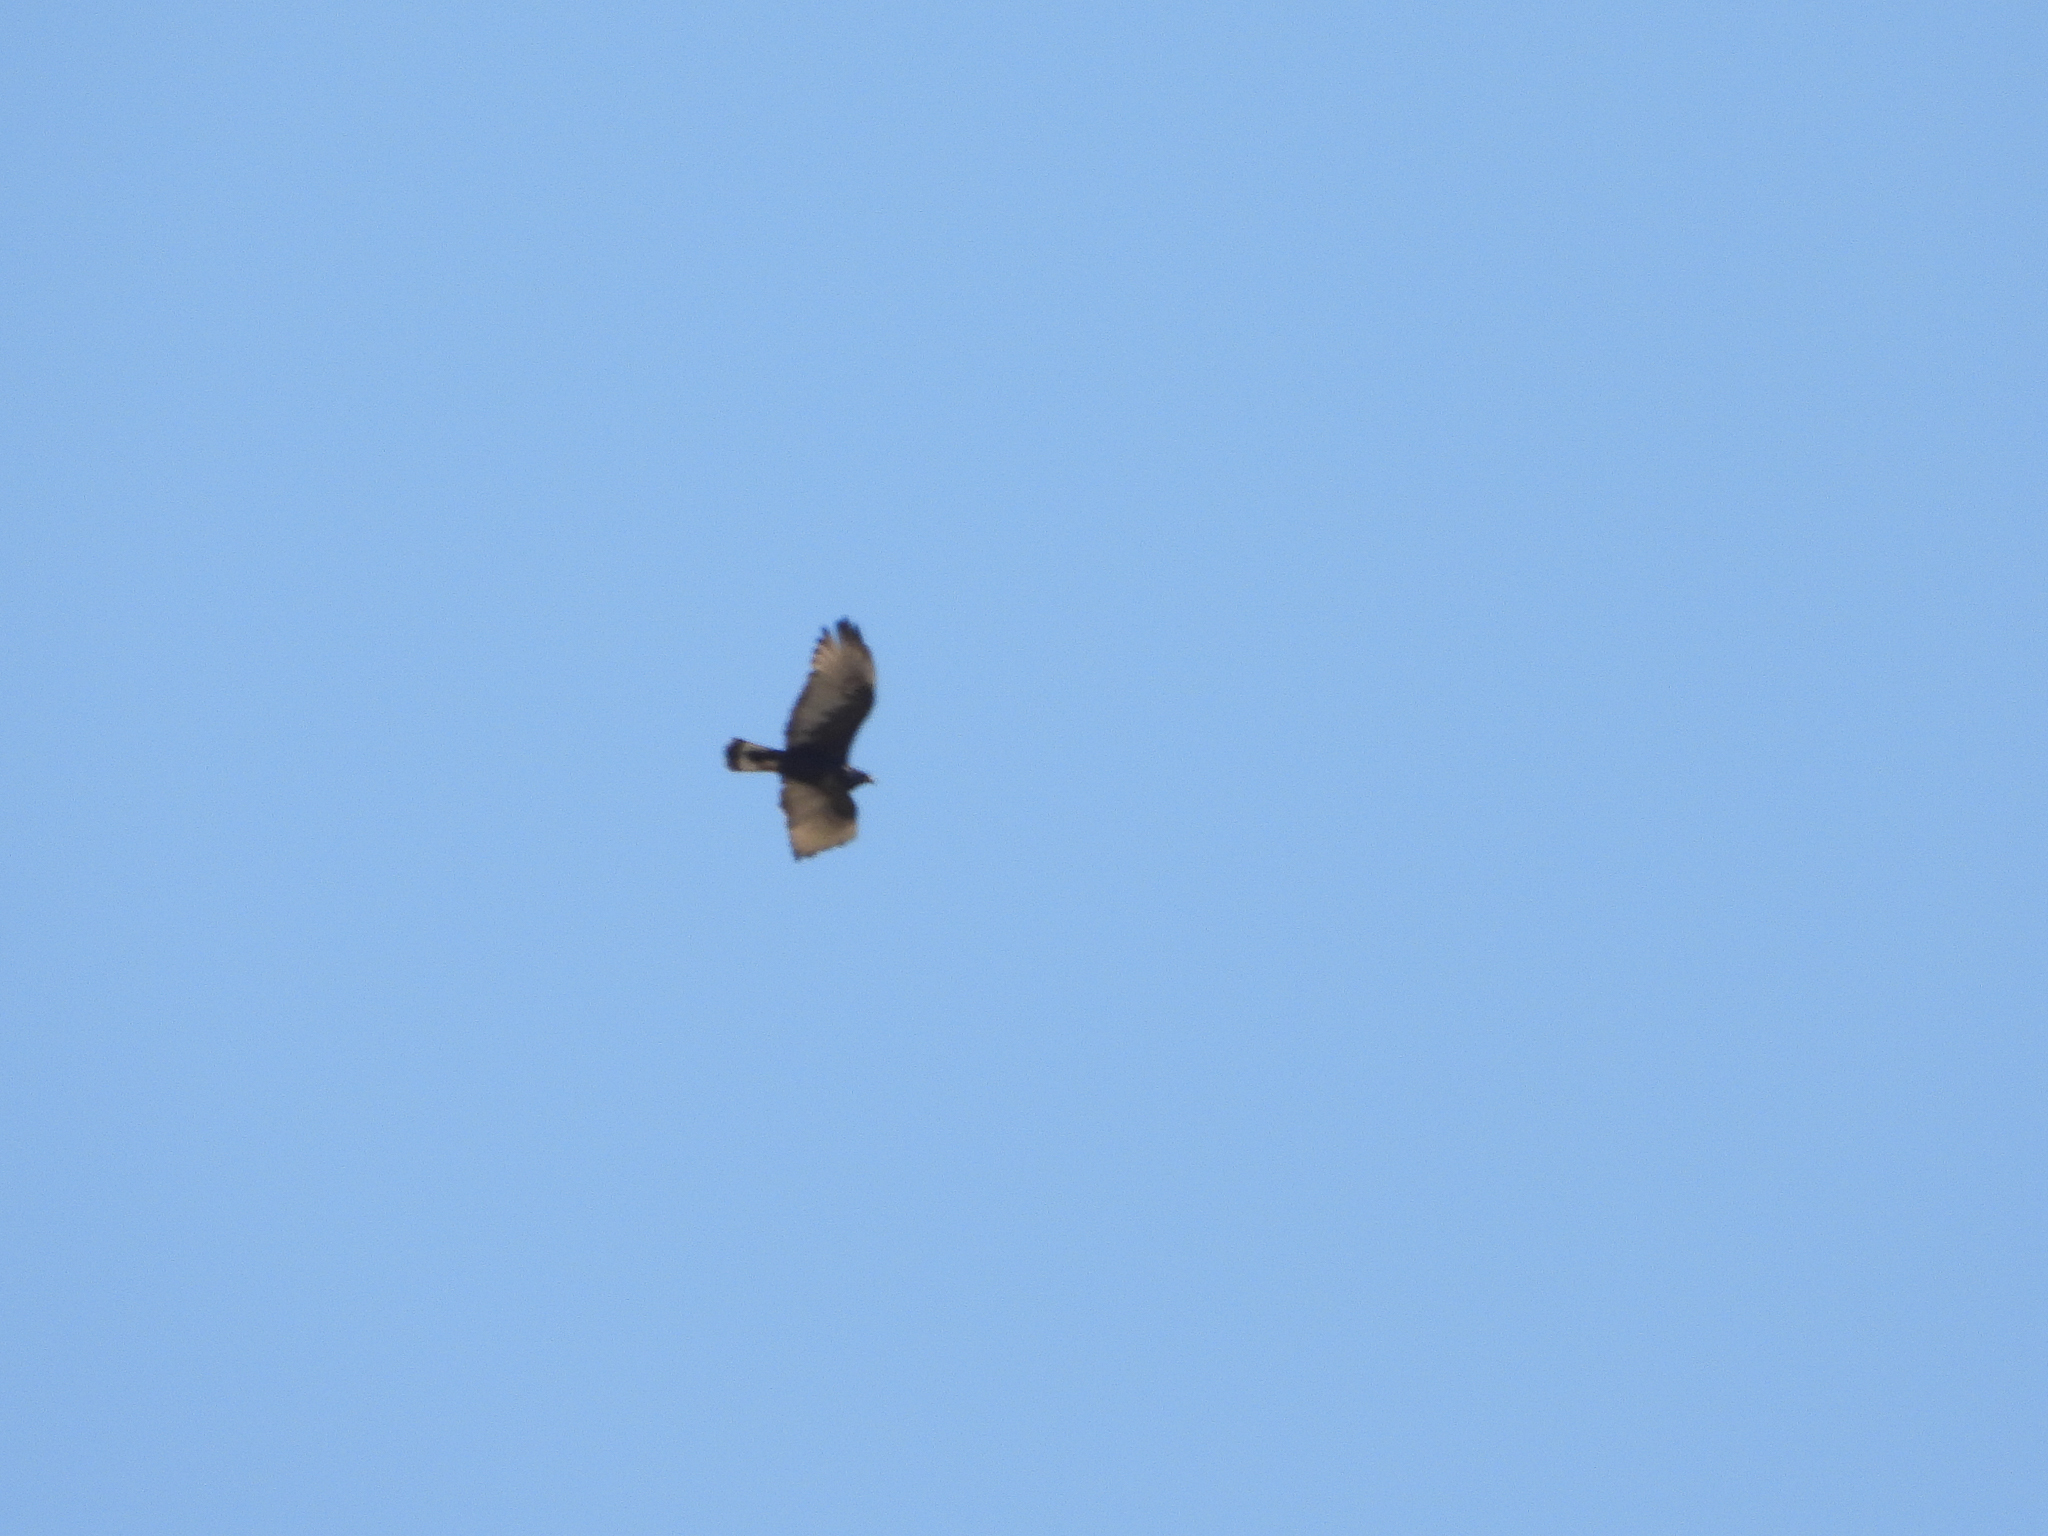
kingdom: Animalia
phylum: Chordata
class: Aves
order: Accipitriformes
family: Accipitridae
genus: Buteo
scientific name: Buteo albonotatus
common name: Zone-tailed hawk
